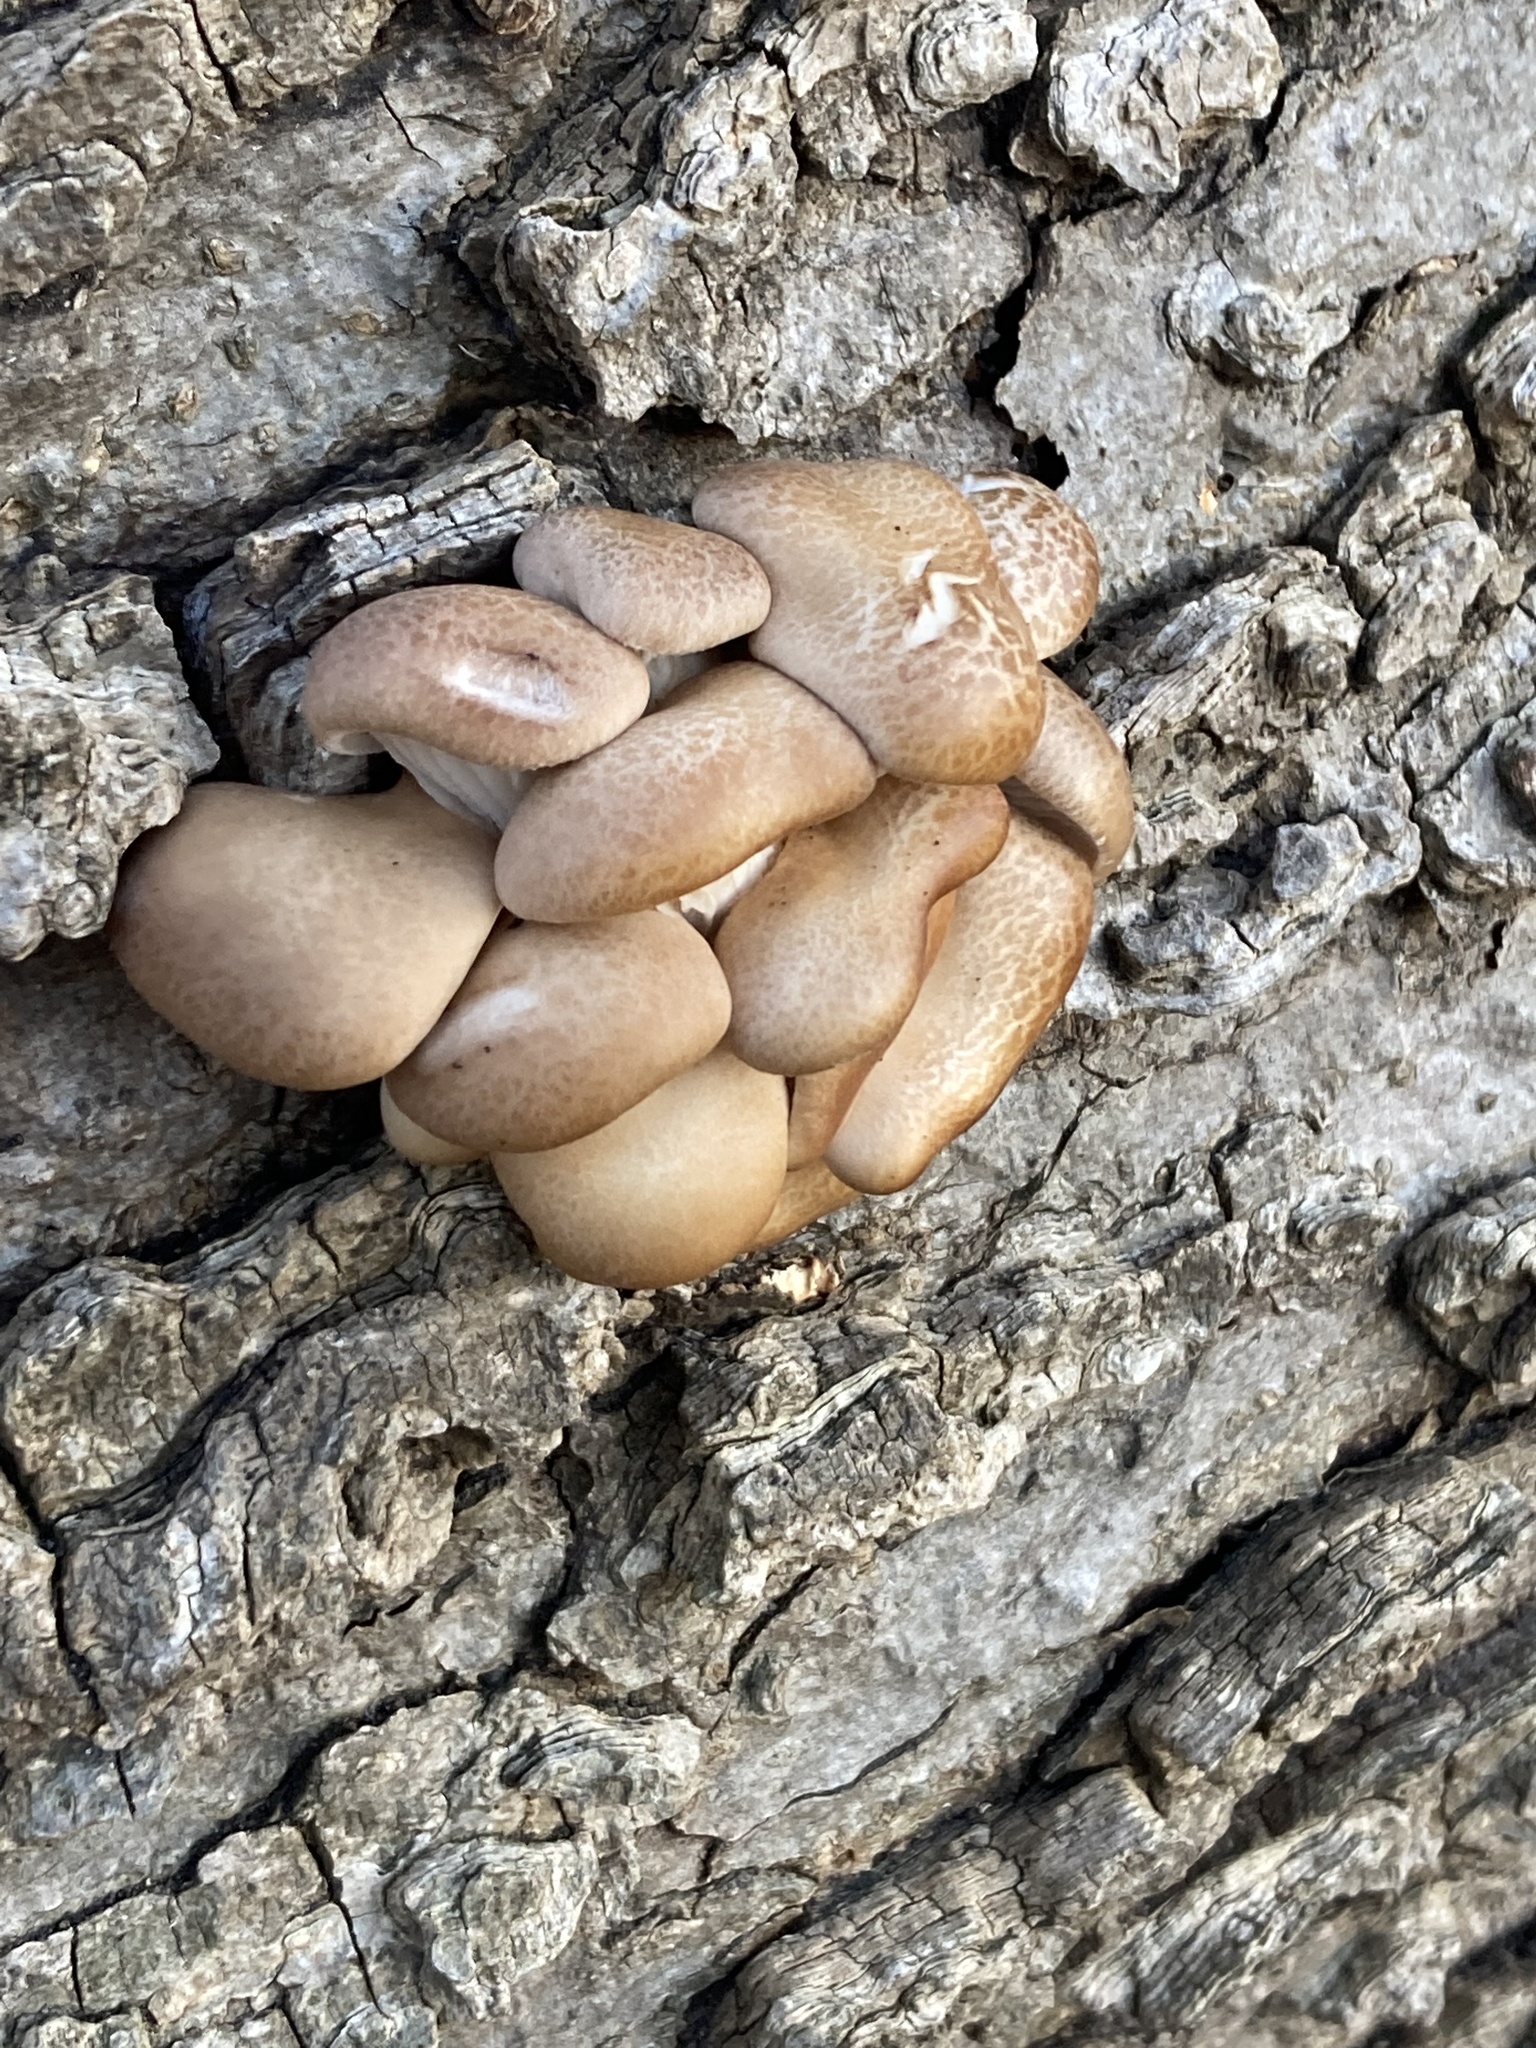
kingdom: Fungi
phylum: Basidiomycota
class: Agaricomycetes
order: Agaricales
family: Pleurotaceae
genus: Pleurotus
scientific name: Pleurotus ostreatus
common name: Oyster mushroom
